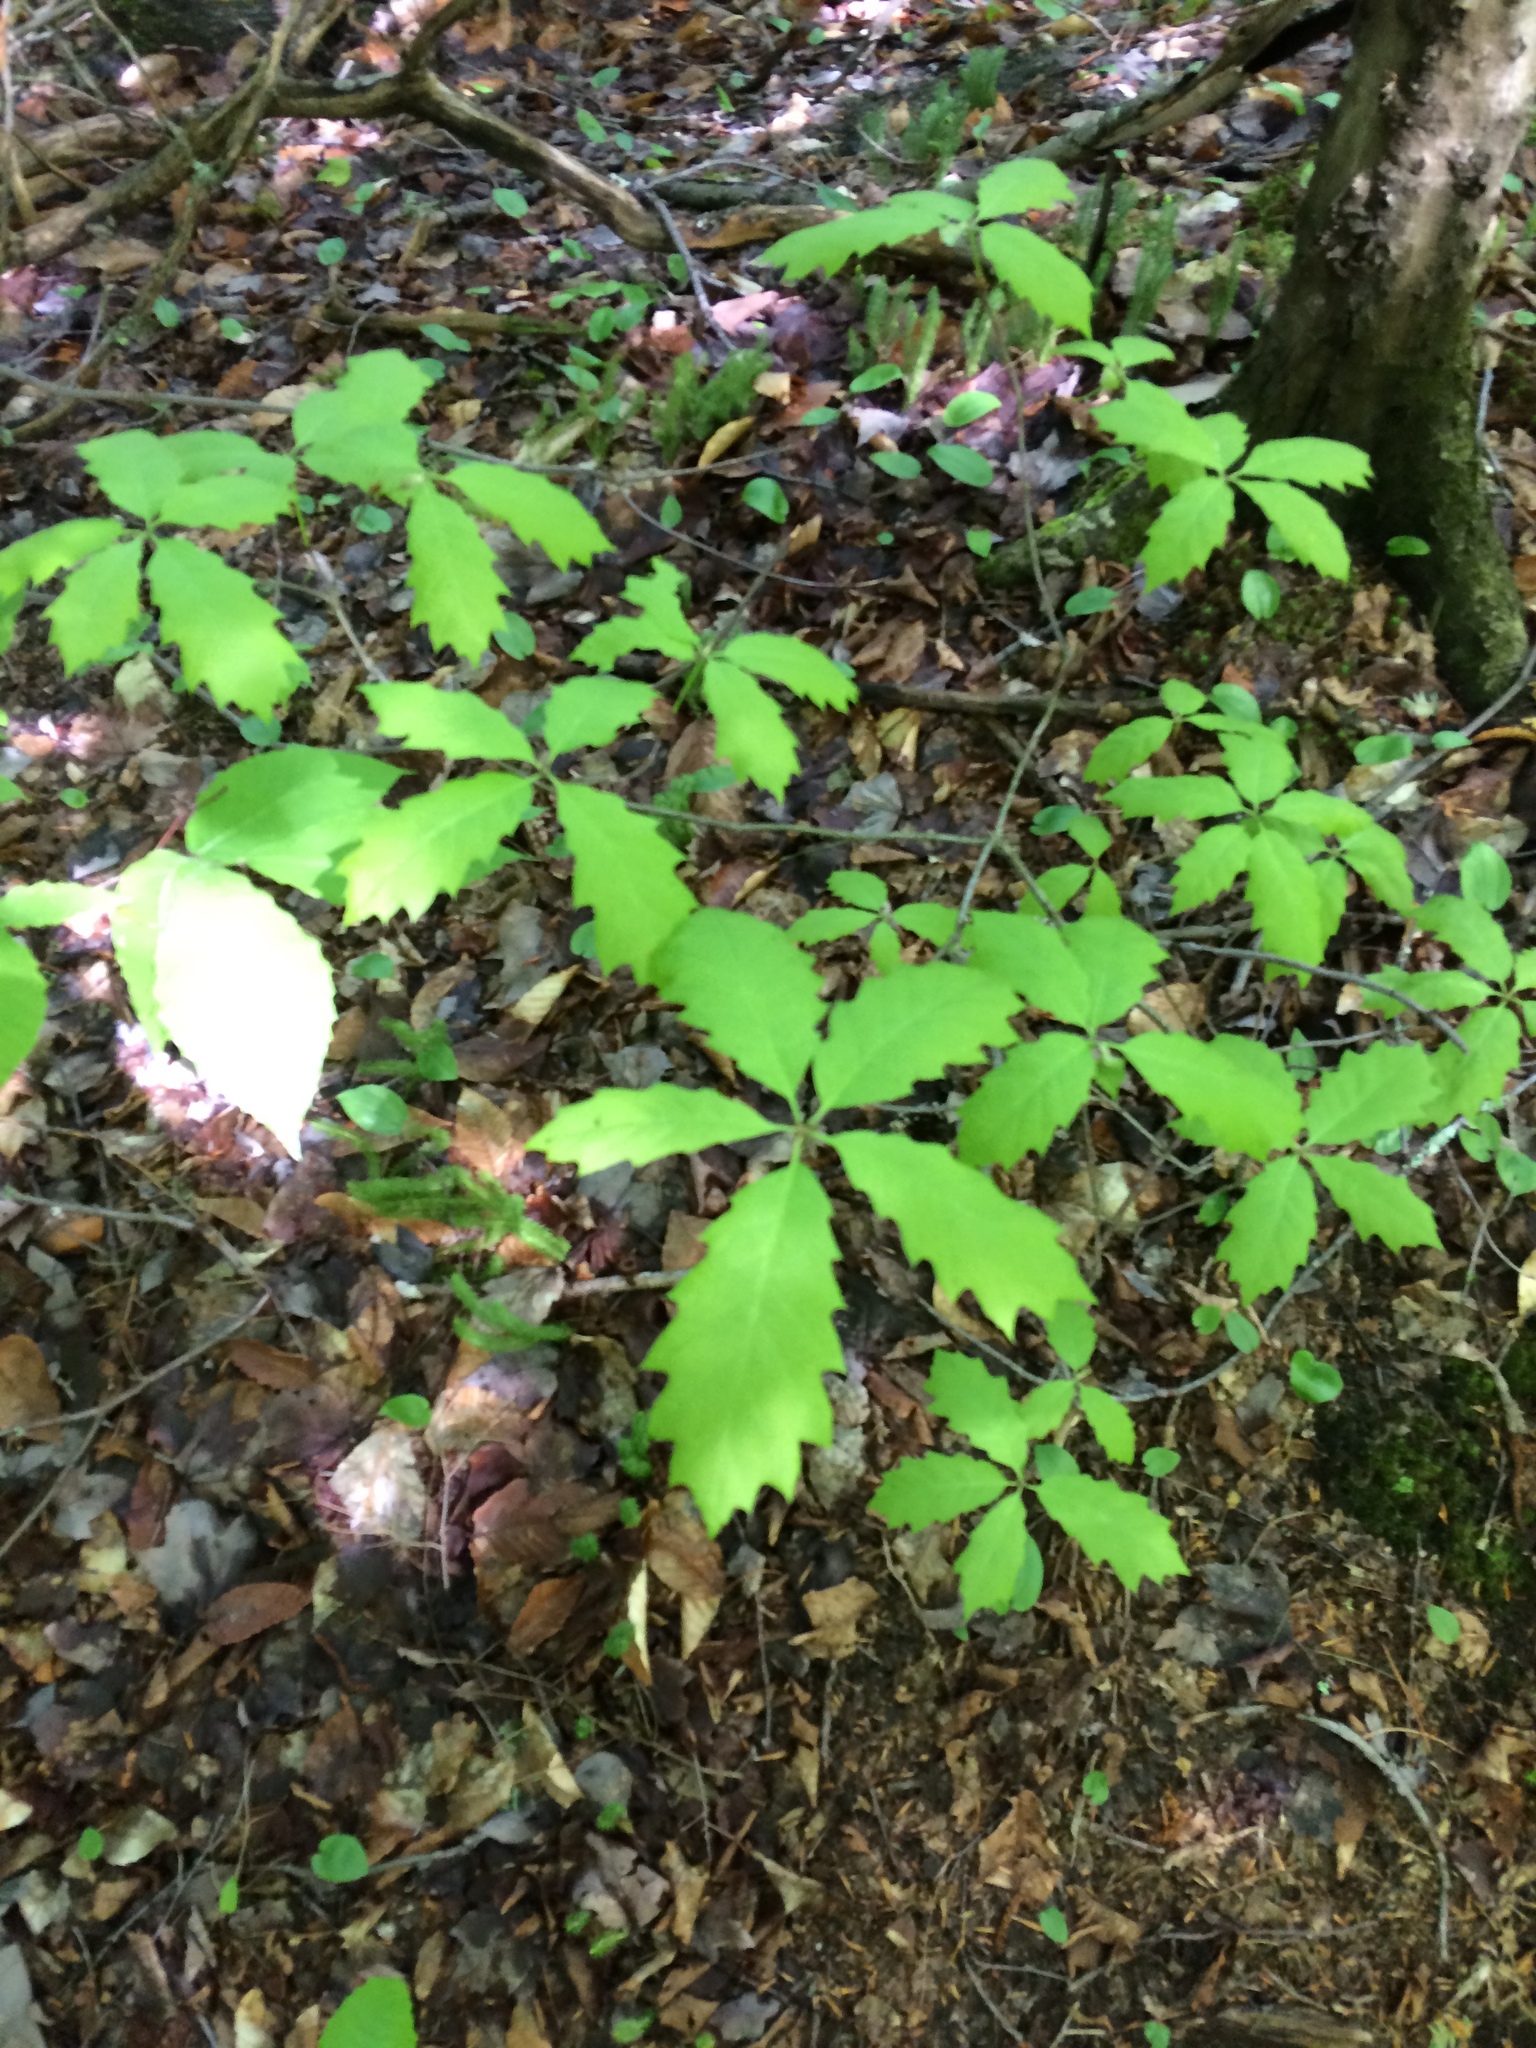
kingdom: Plantae
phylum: Tracheophyta
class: Magnoliopsida
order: Fagales
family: Fagaceae
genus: Quercus
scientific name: Quercus rubra
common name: Red oak
